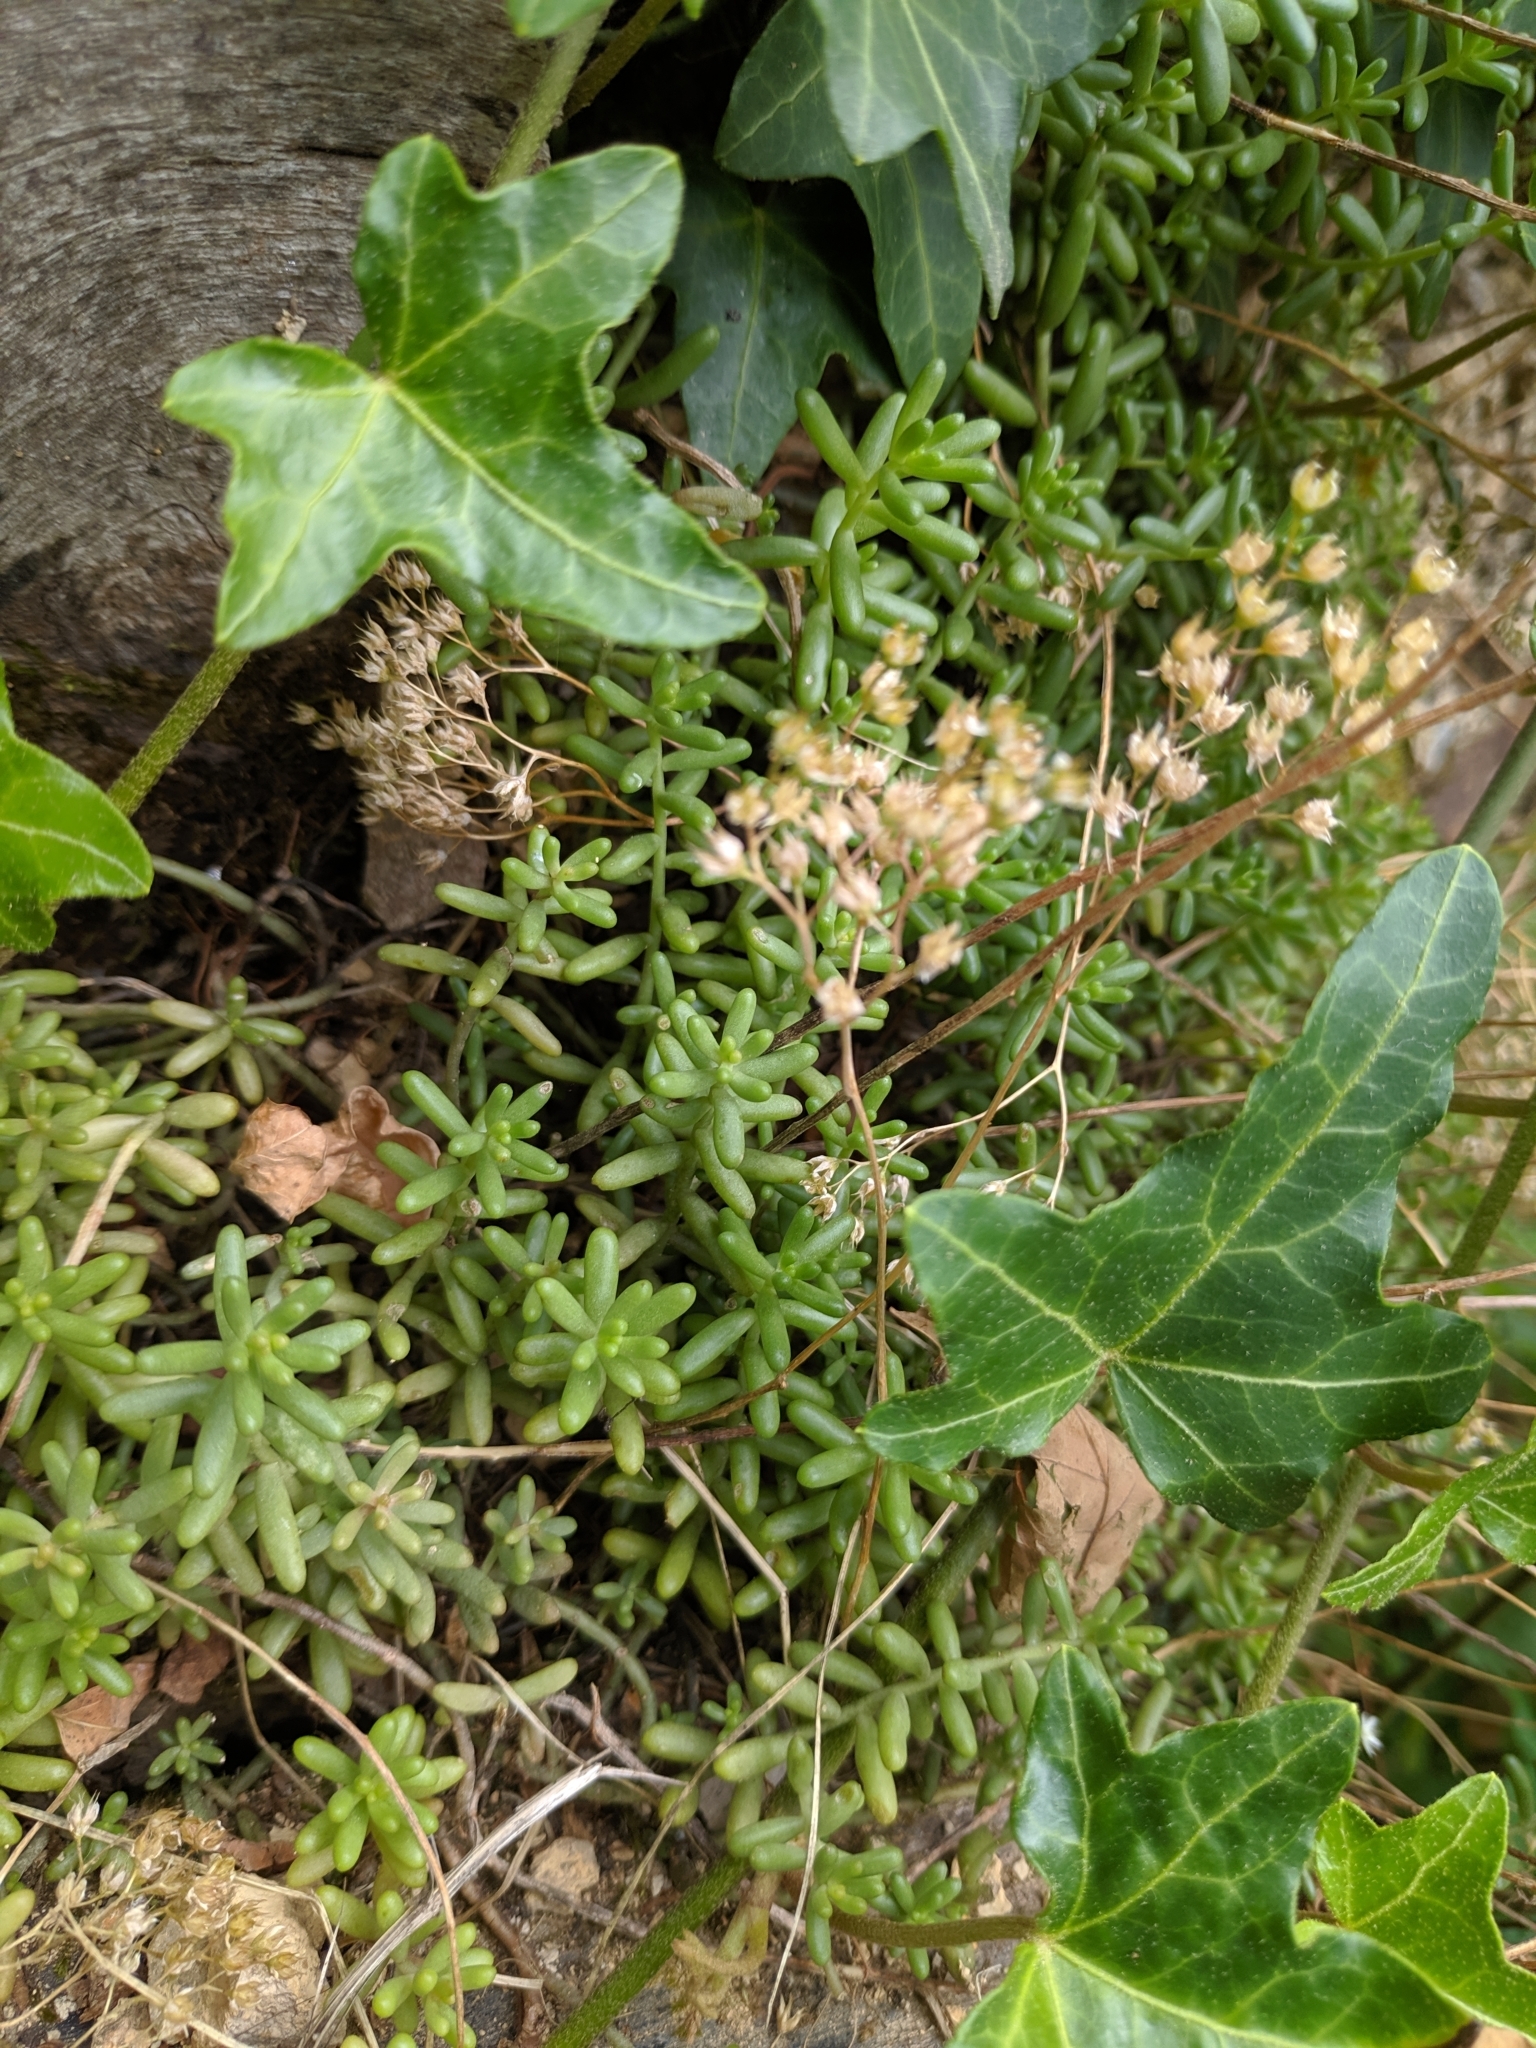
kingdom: Plantae
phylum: Tracheophyta
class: Magnoliopsida
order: Saxifragales
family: Crassulaceae
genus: Sedum
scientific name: Sedum album
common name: White stonecrop
